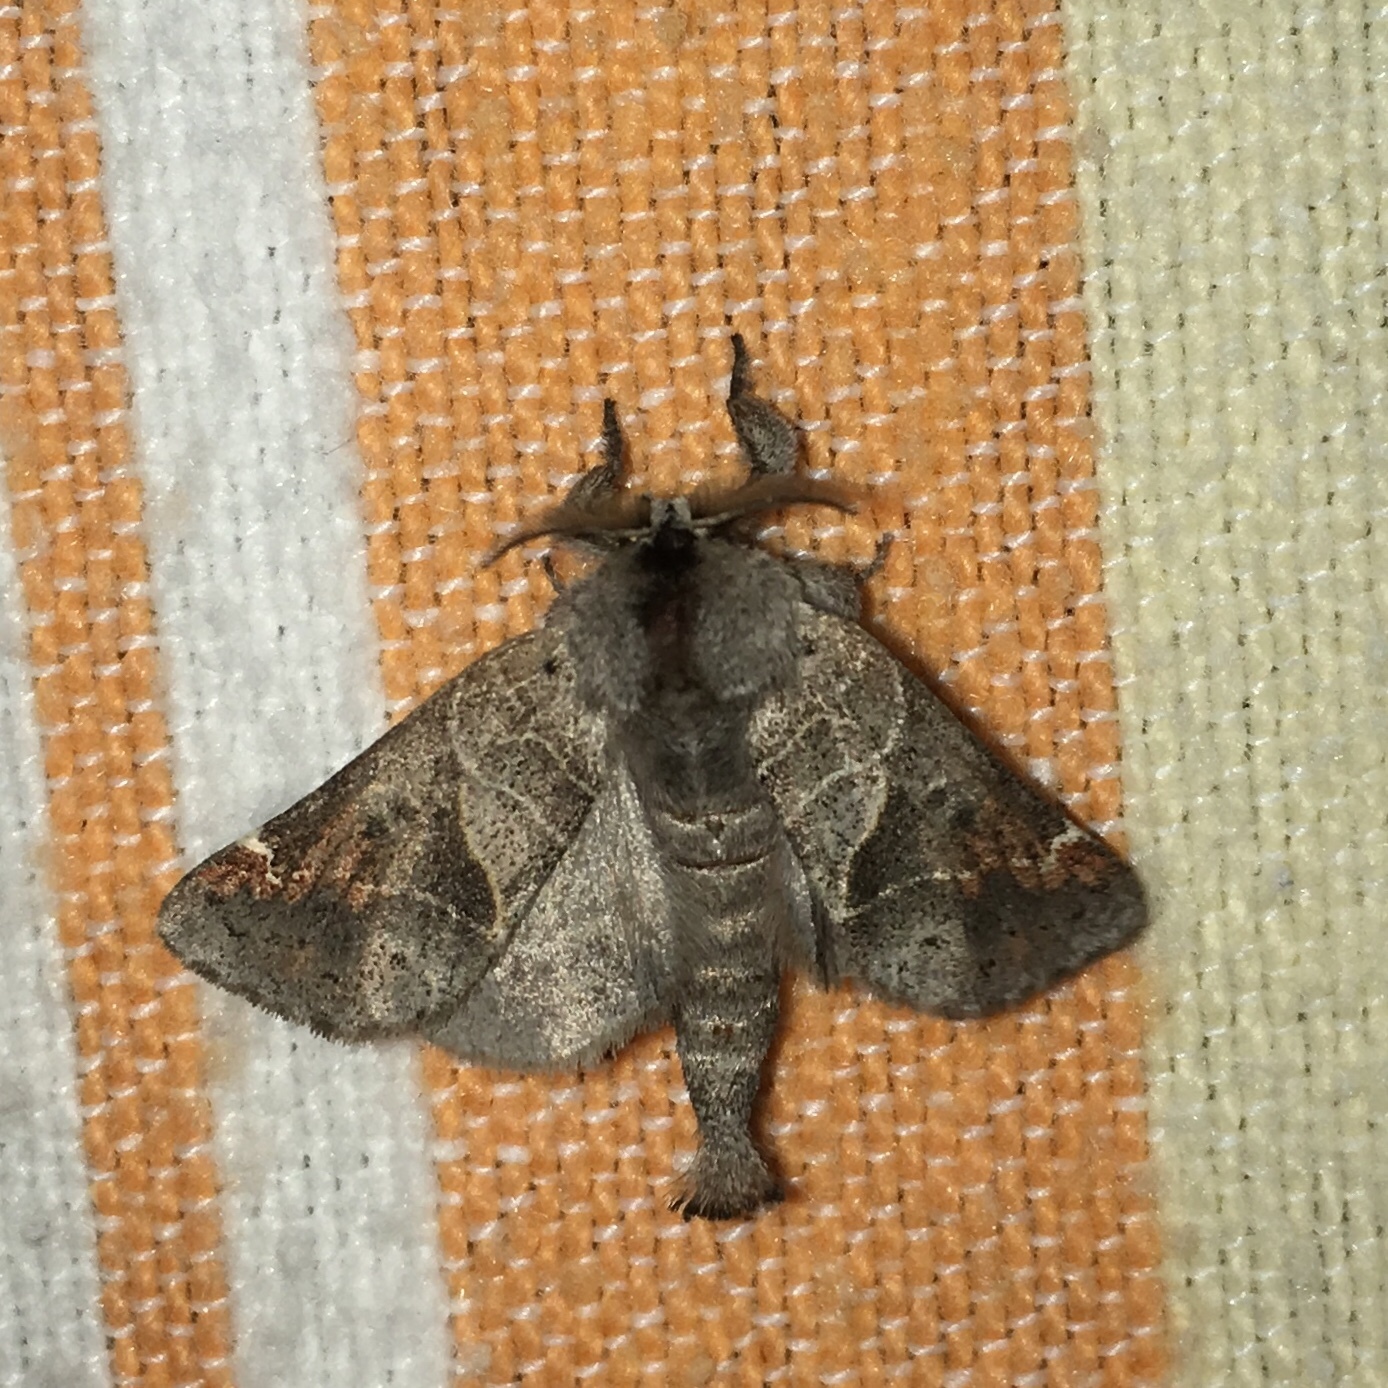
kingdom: Animalia
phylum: Arthropoda
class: Insecta
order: Lepidoptera
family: Notodontidae
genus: Clostera
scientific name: Clostera apicalis
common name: Apical prominent
